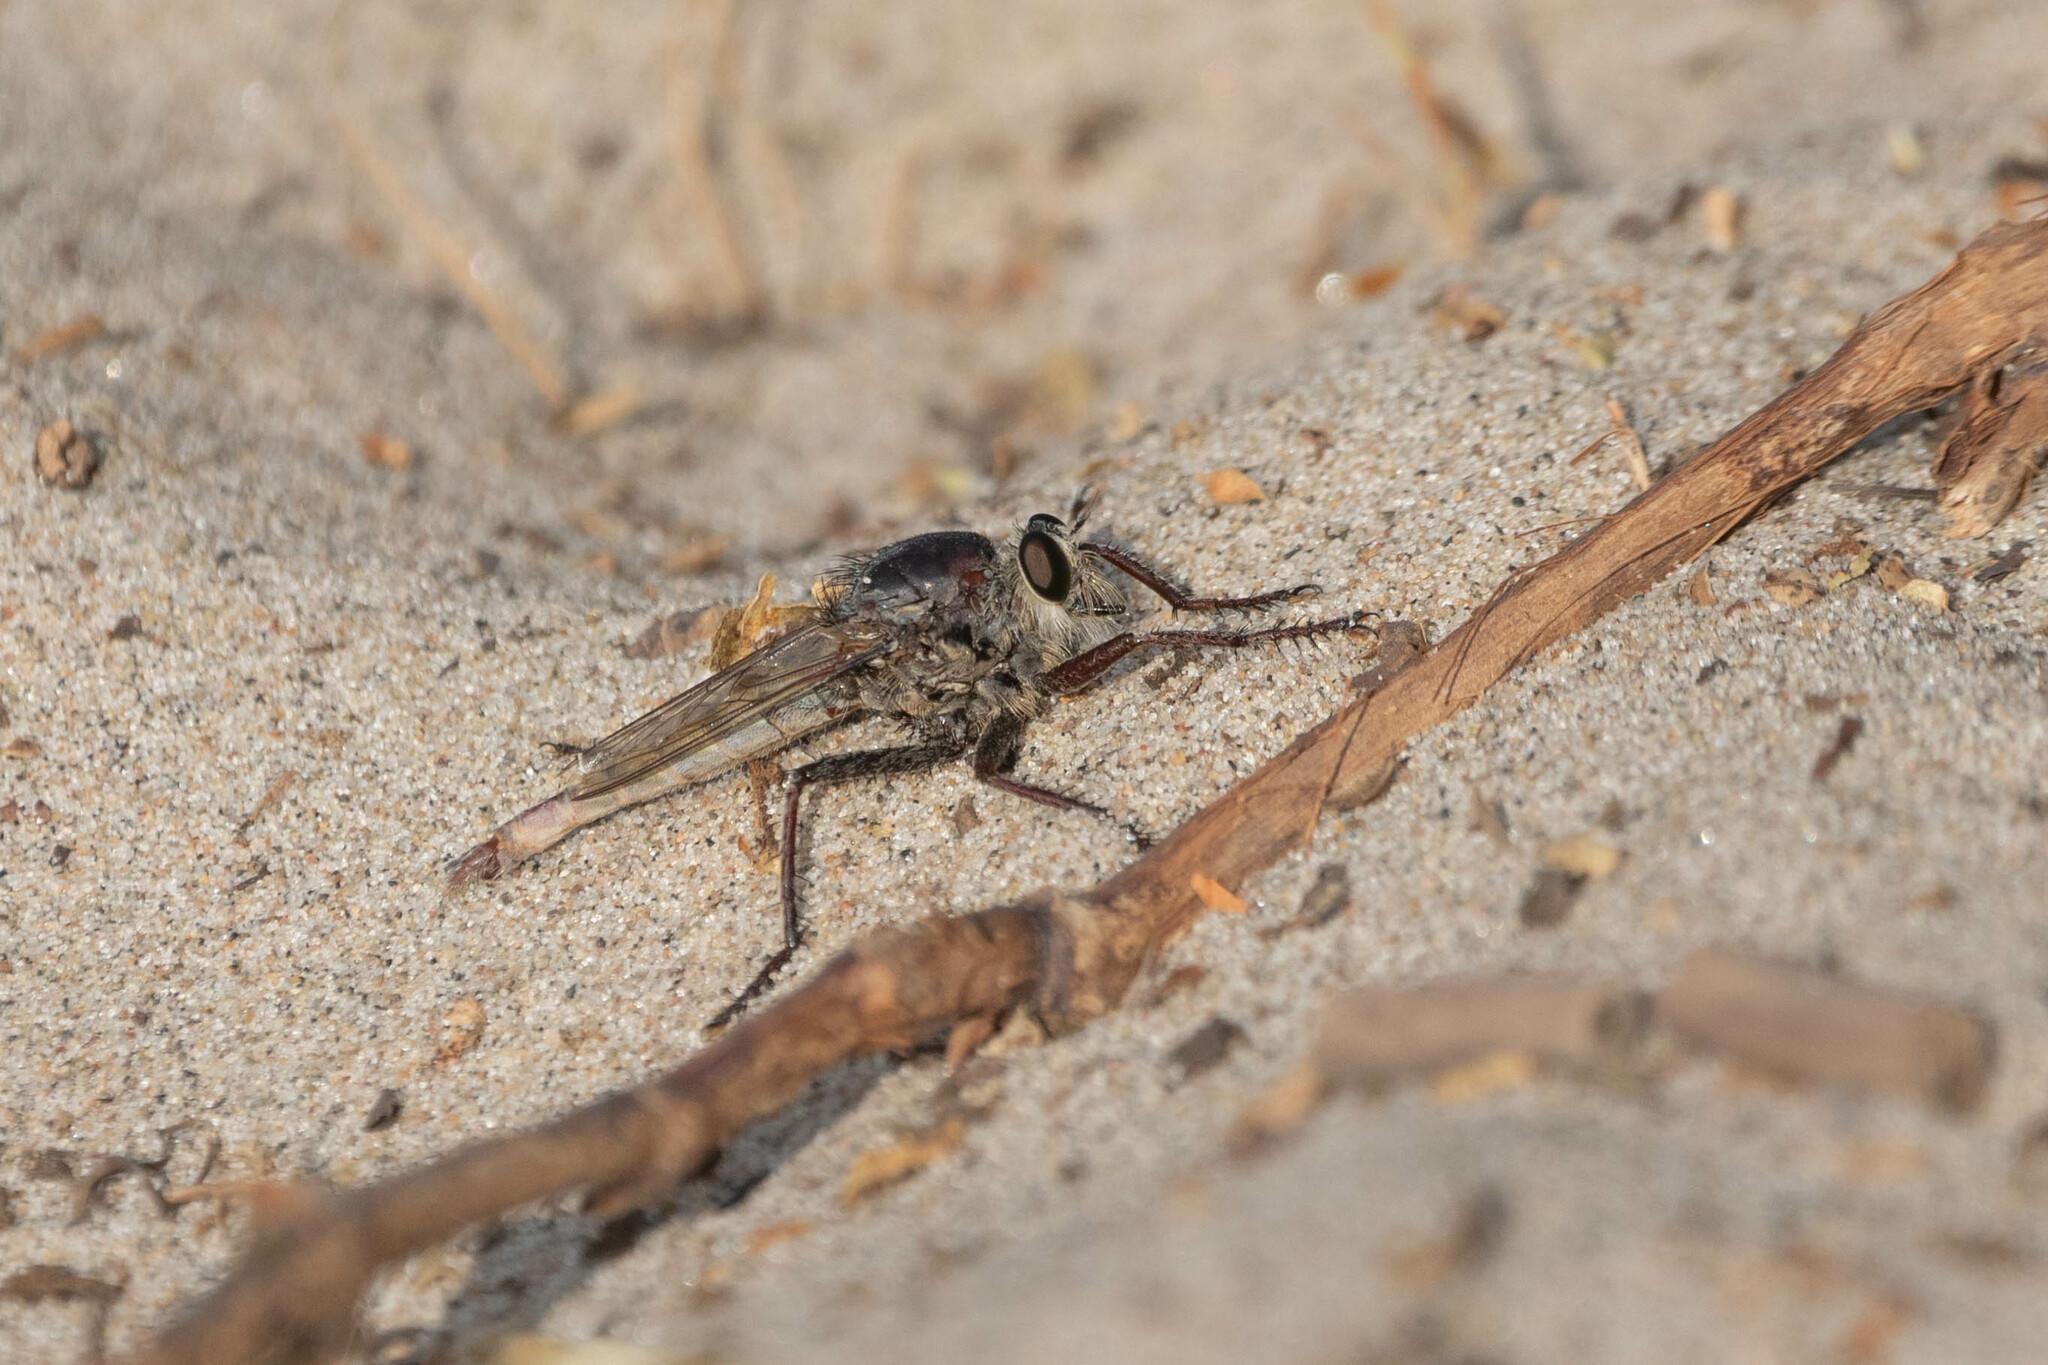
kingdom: Animalia
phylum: Arthropoda
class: Insecta
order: Diptera
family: Asilidae
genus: Proctacanthus
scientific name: Proctacanthus milbertii
